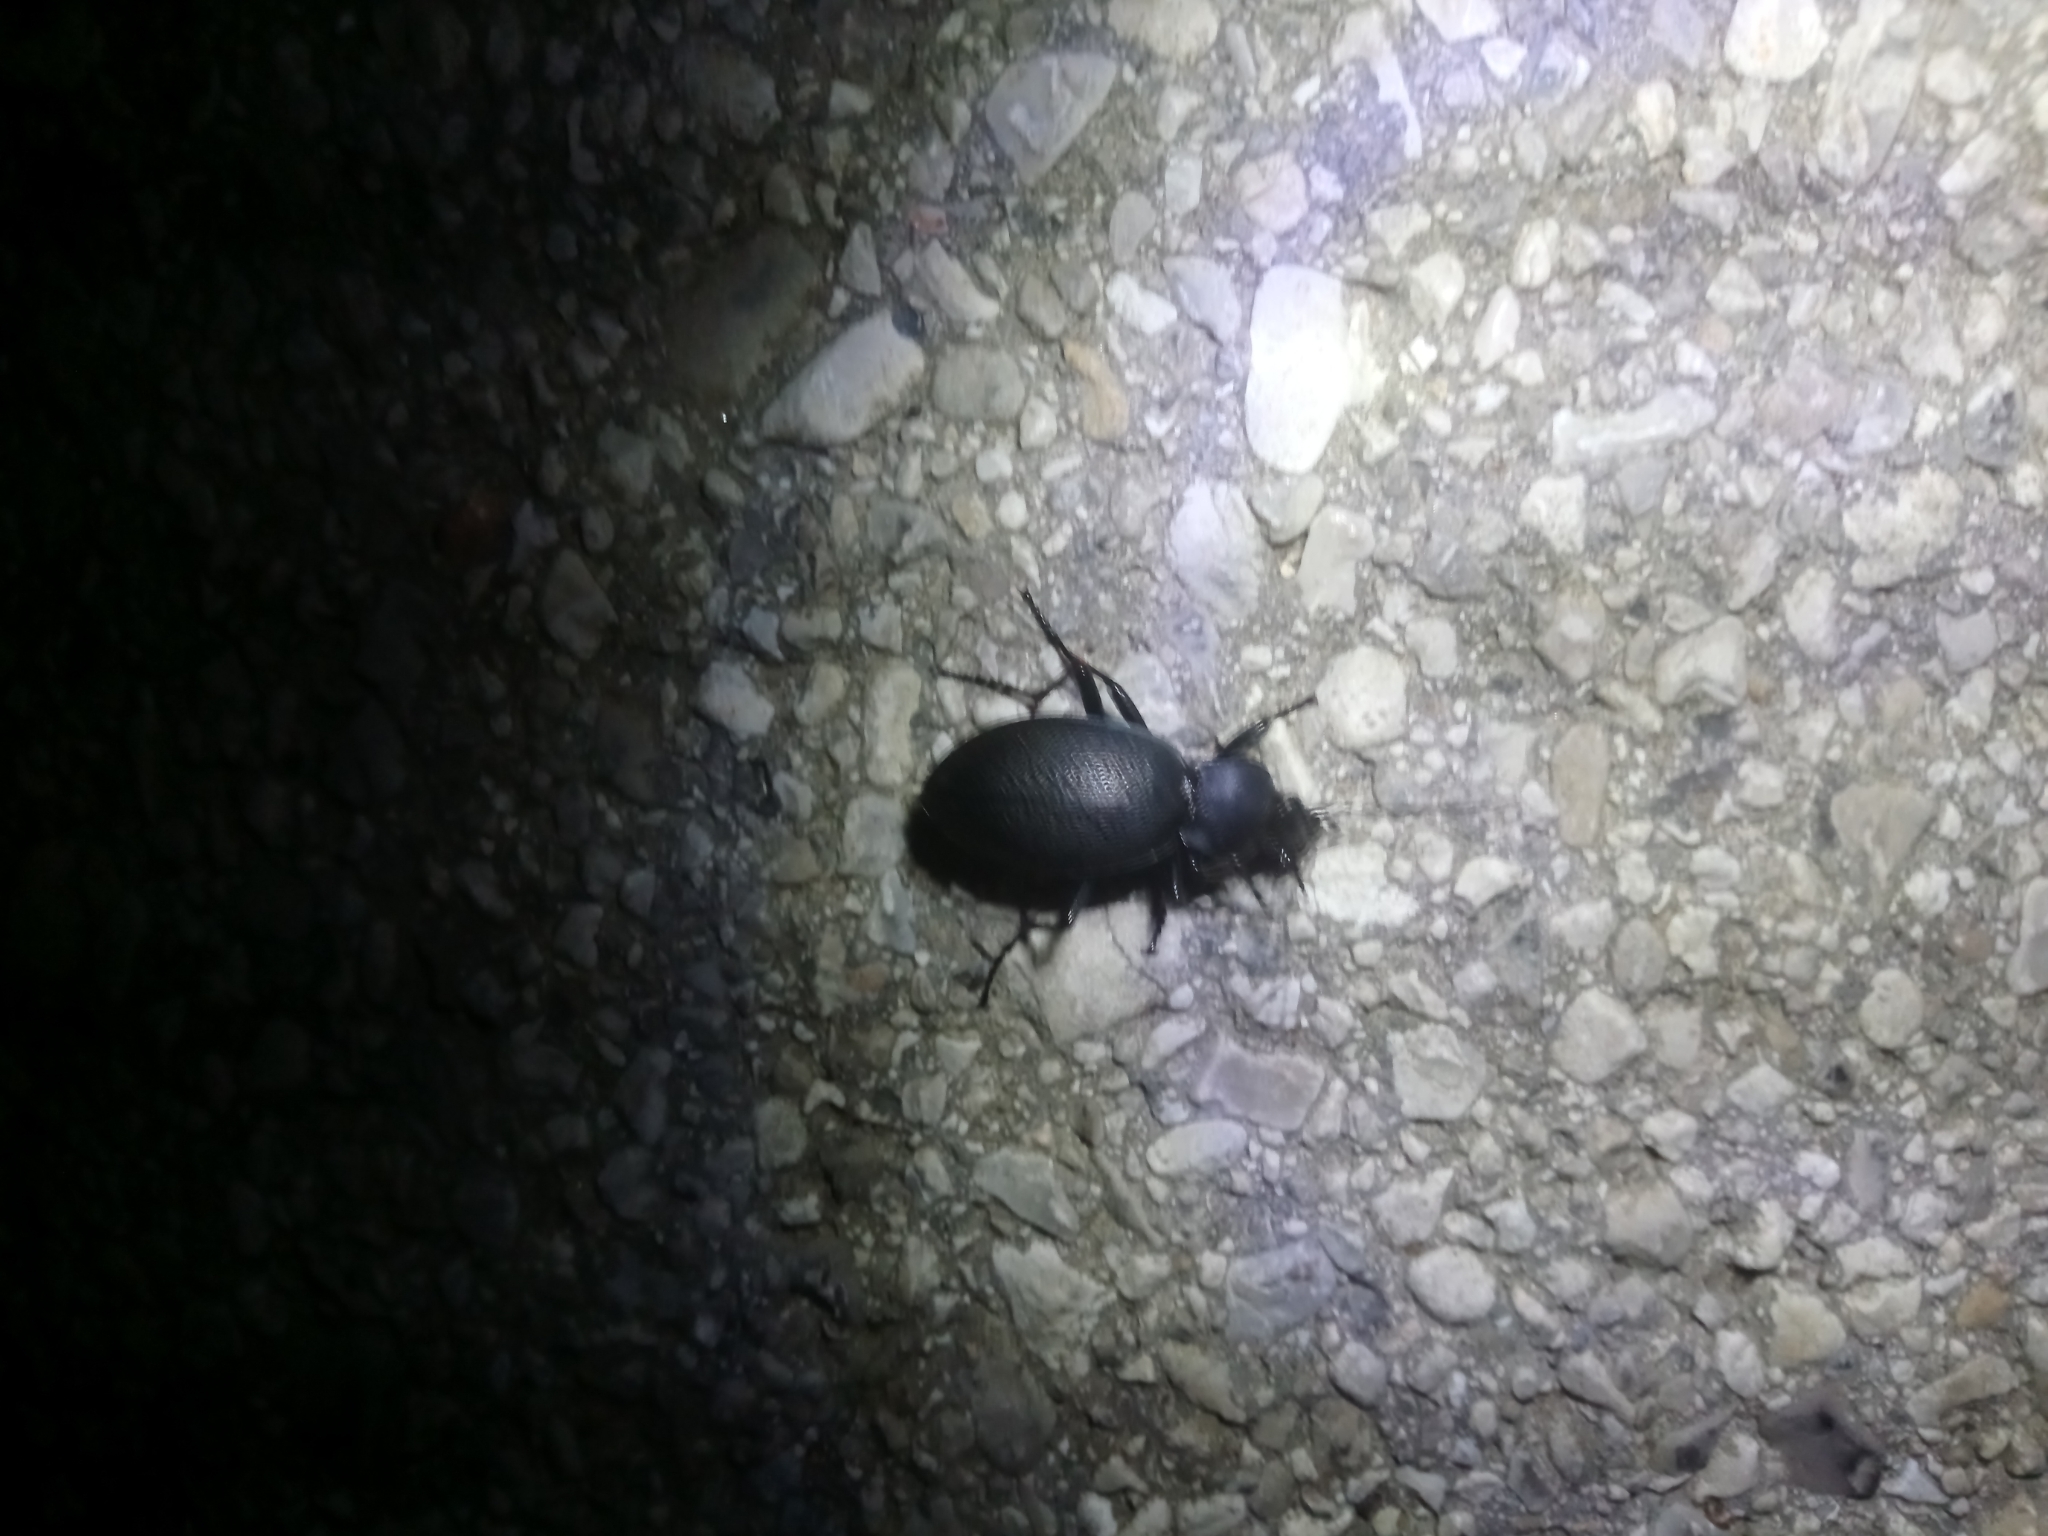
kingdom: Animalia
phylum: Arthropoda
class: Insecta
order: Coleoptera
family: Carabidae
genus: Carabus
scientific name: Carabus coriaceus
